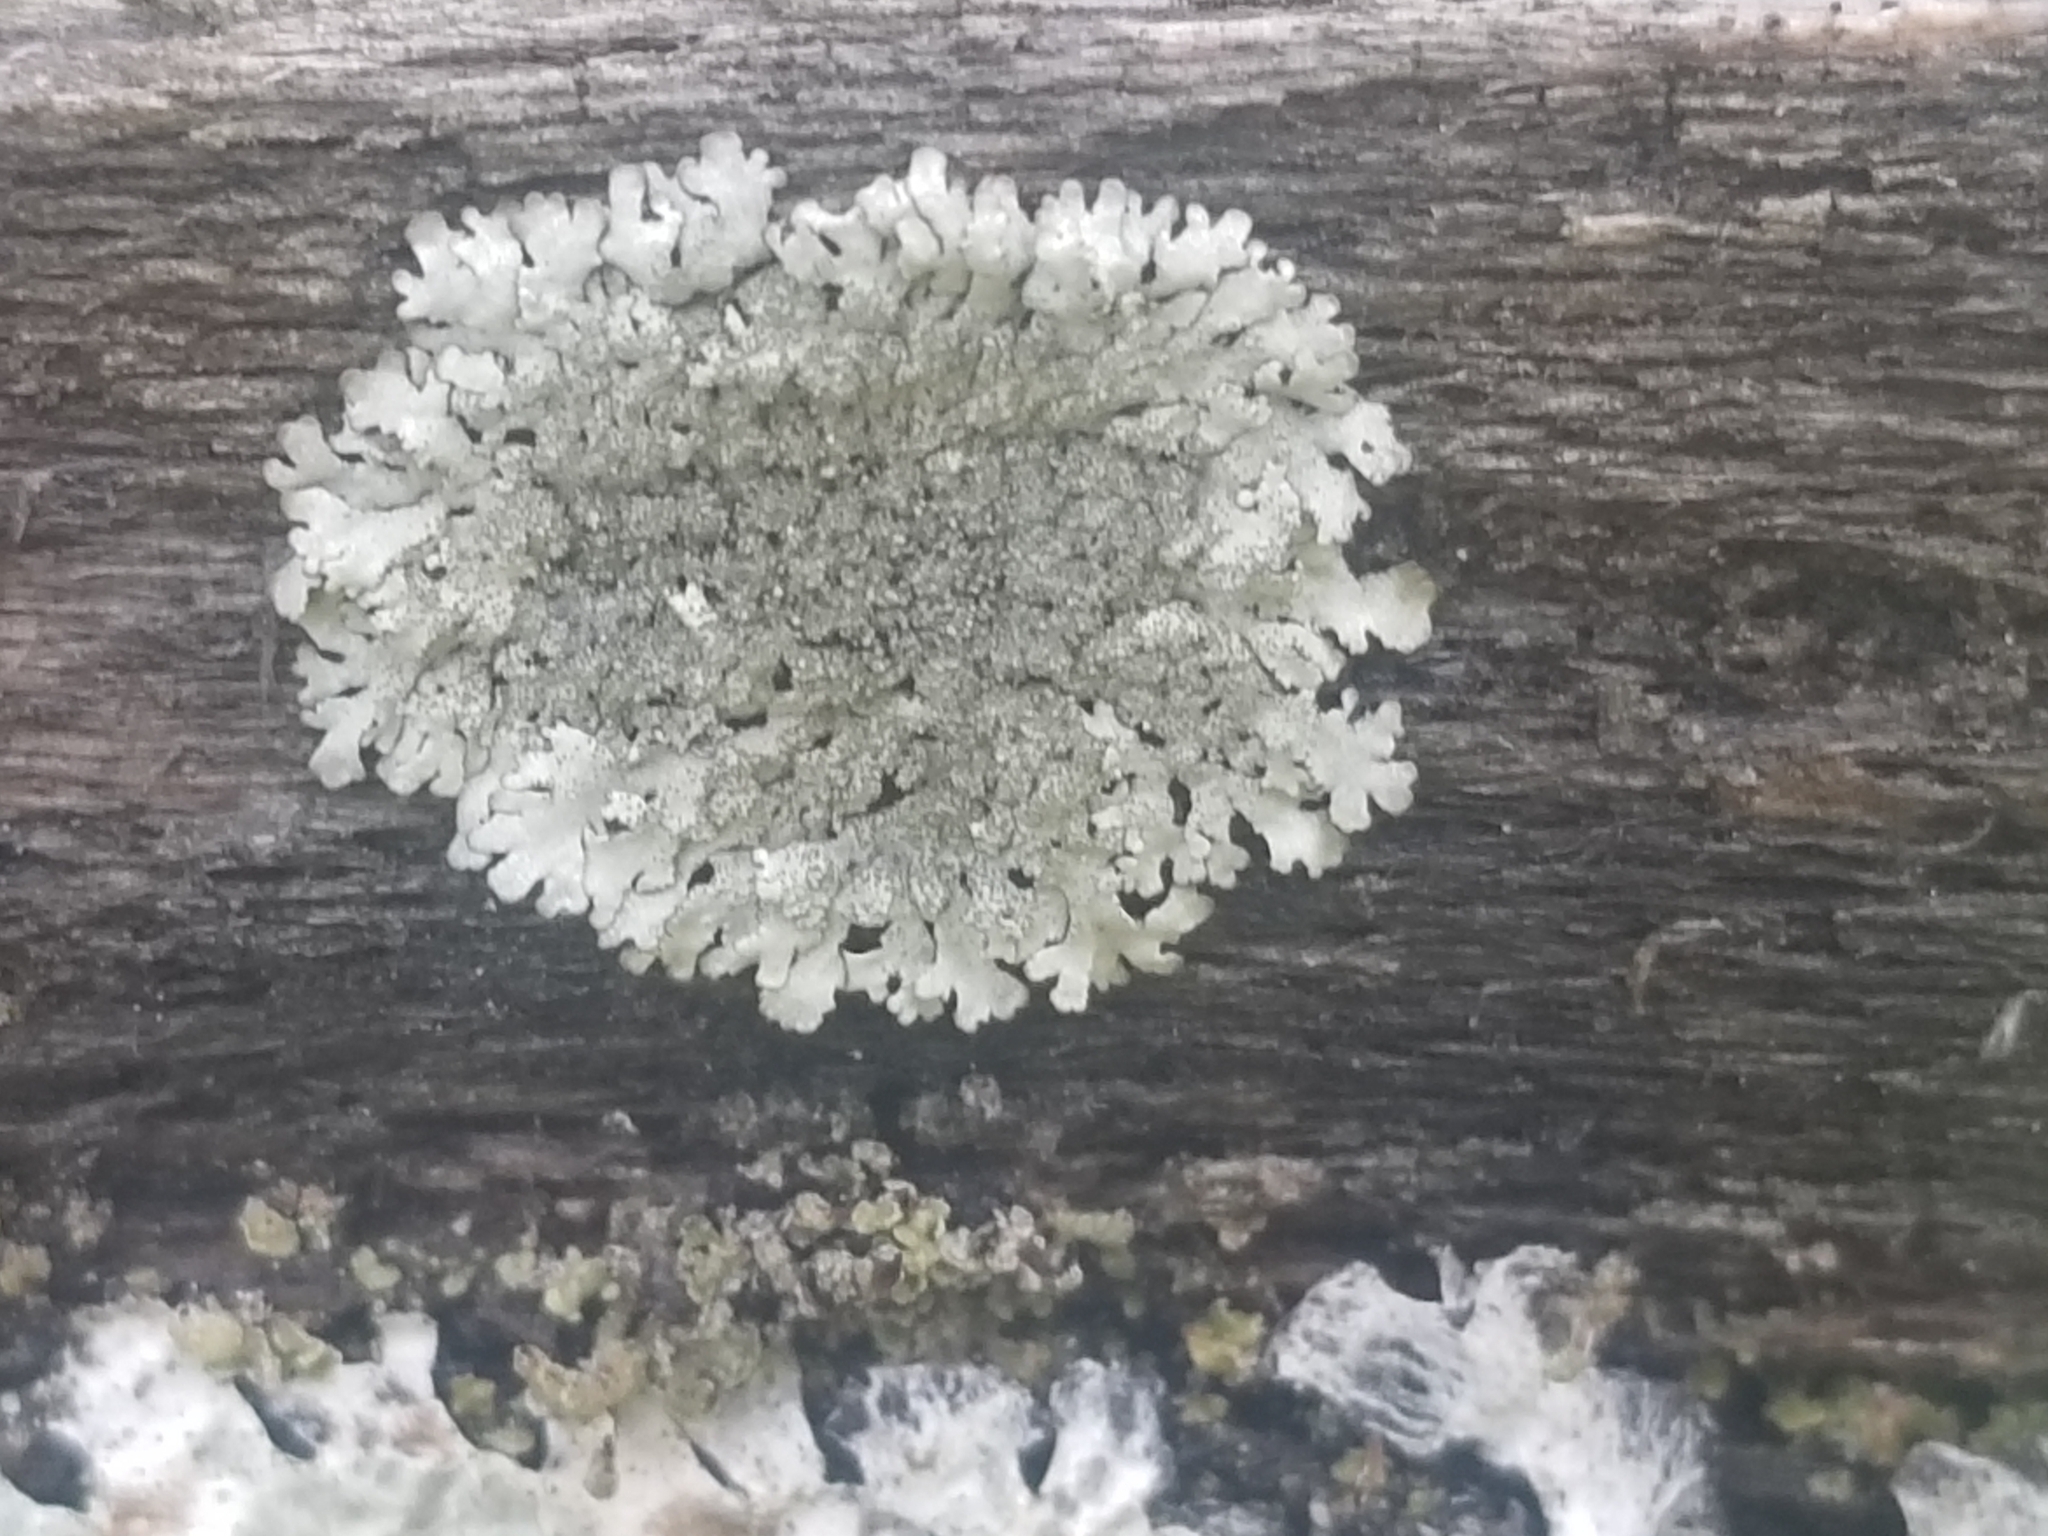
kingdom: Fungi
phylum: Ascomycota
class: Lecanoromycetes
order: Lecanorales
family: Parmeliaceae
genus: Imshaugia
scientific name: Imshaugia aleurites
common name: Salted starburst lichen
